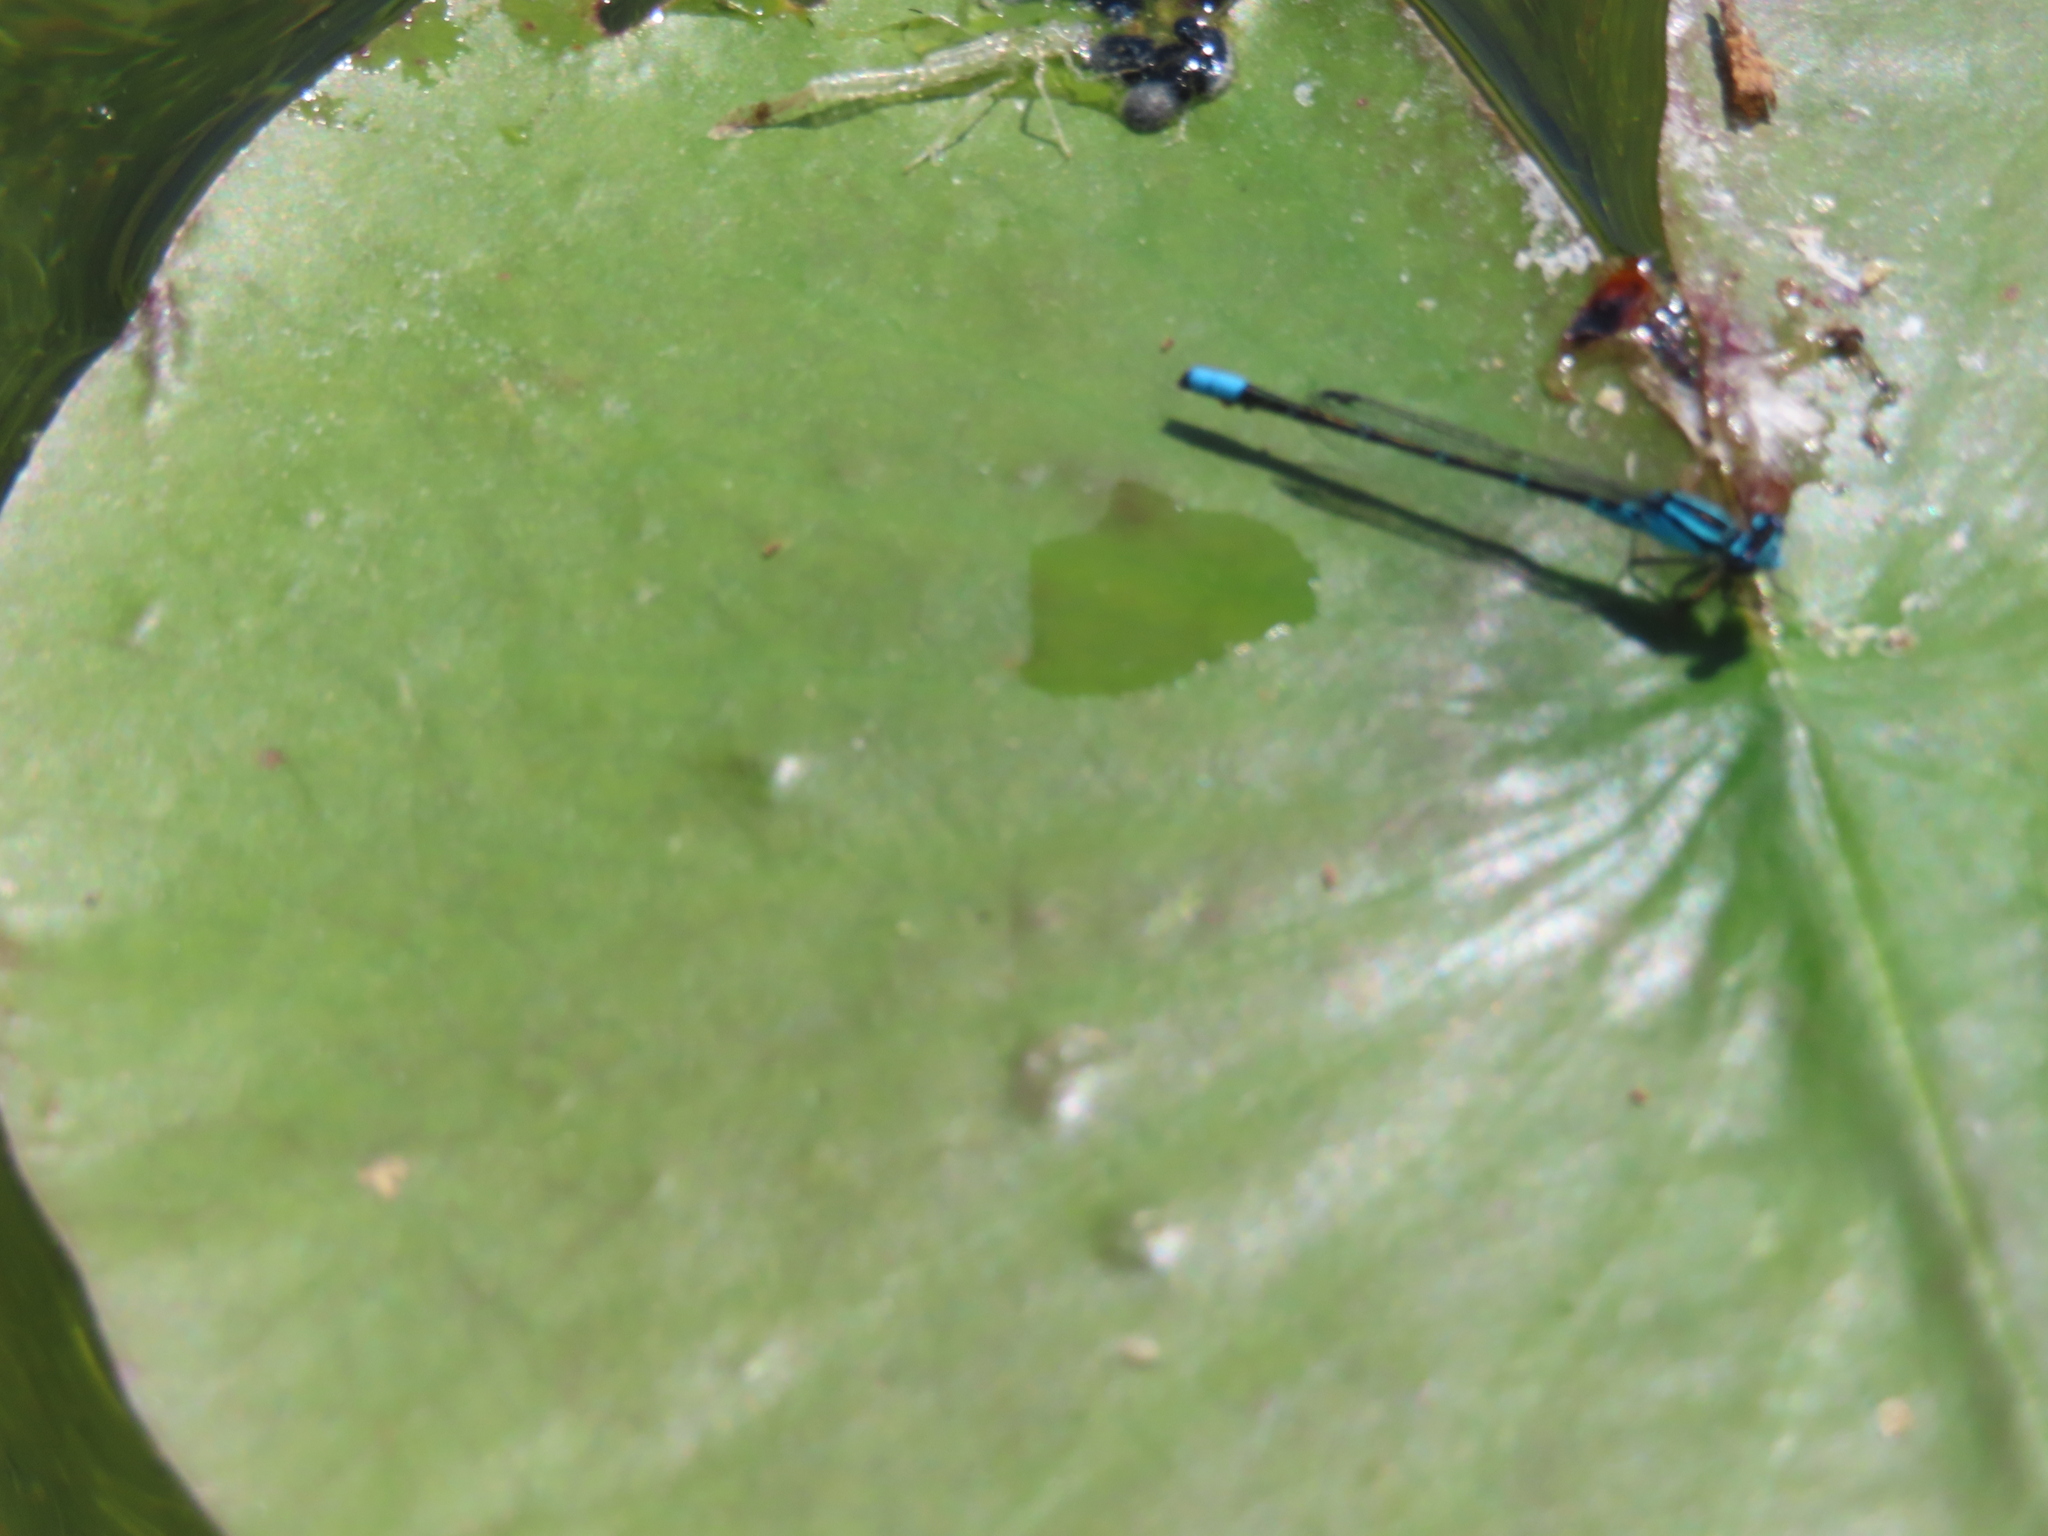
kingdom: Animalia
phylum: Arthropoda
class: Insecta
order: Odonata
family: Coenagrionidae
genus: Enallagma
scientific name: Enallagma geminatum
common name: Skimming bluet
